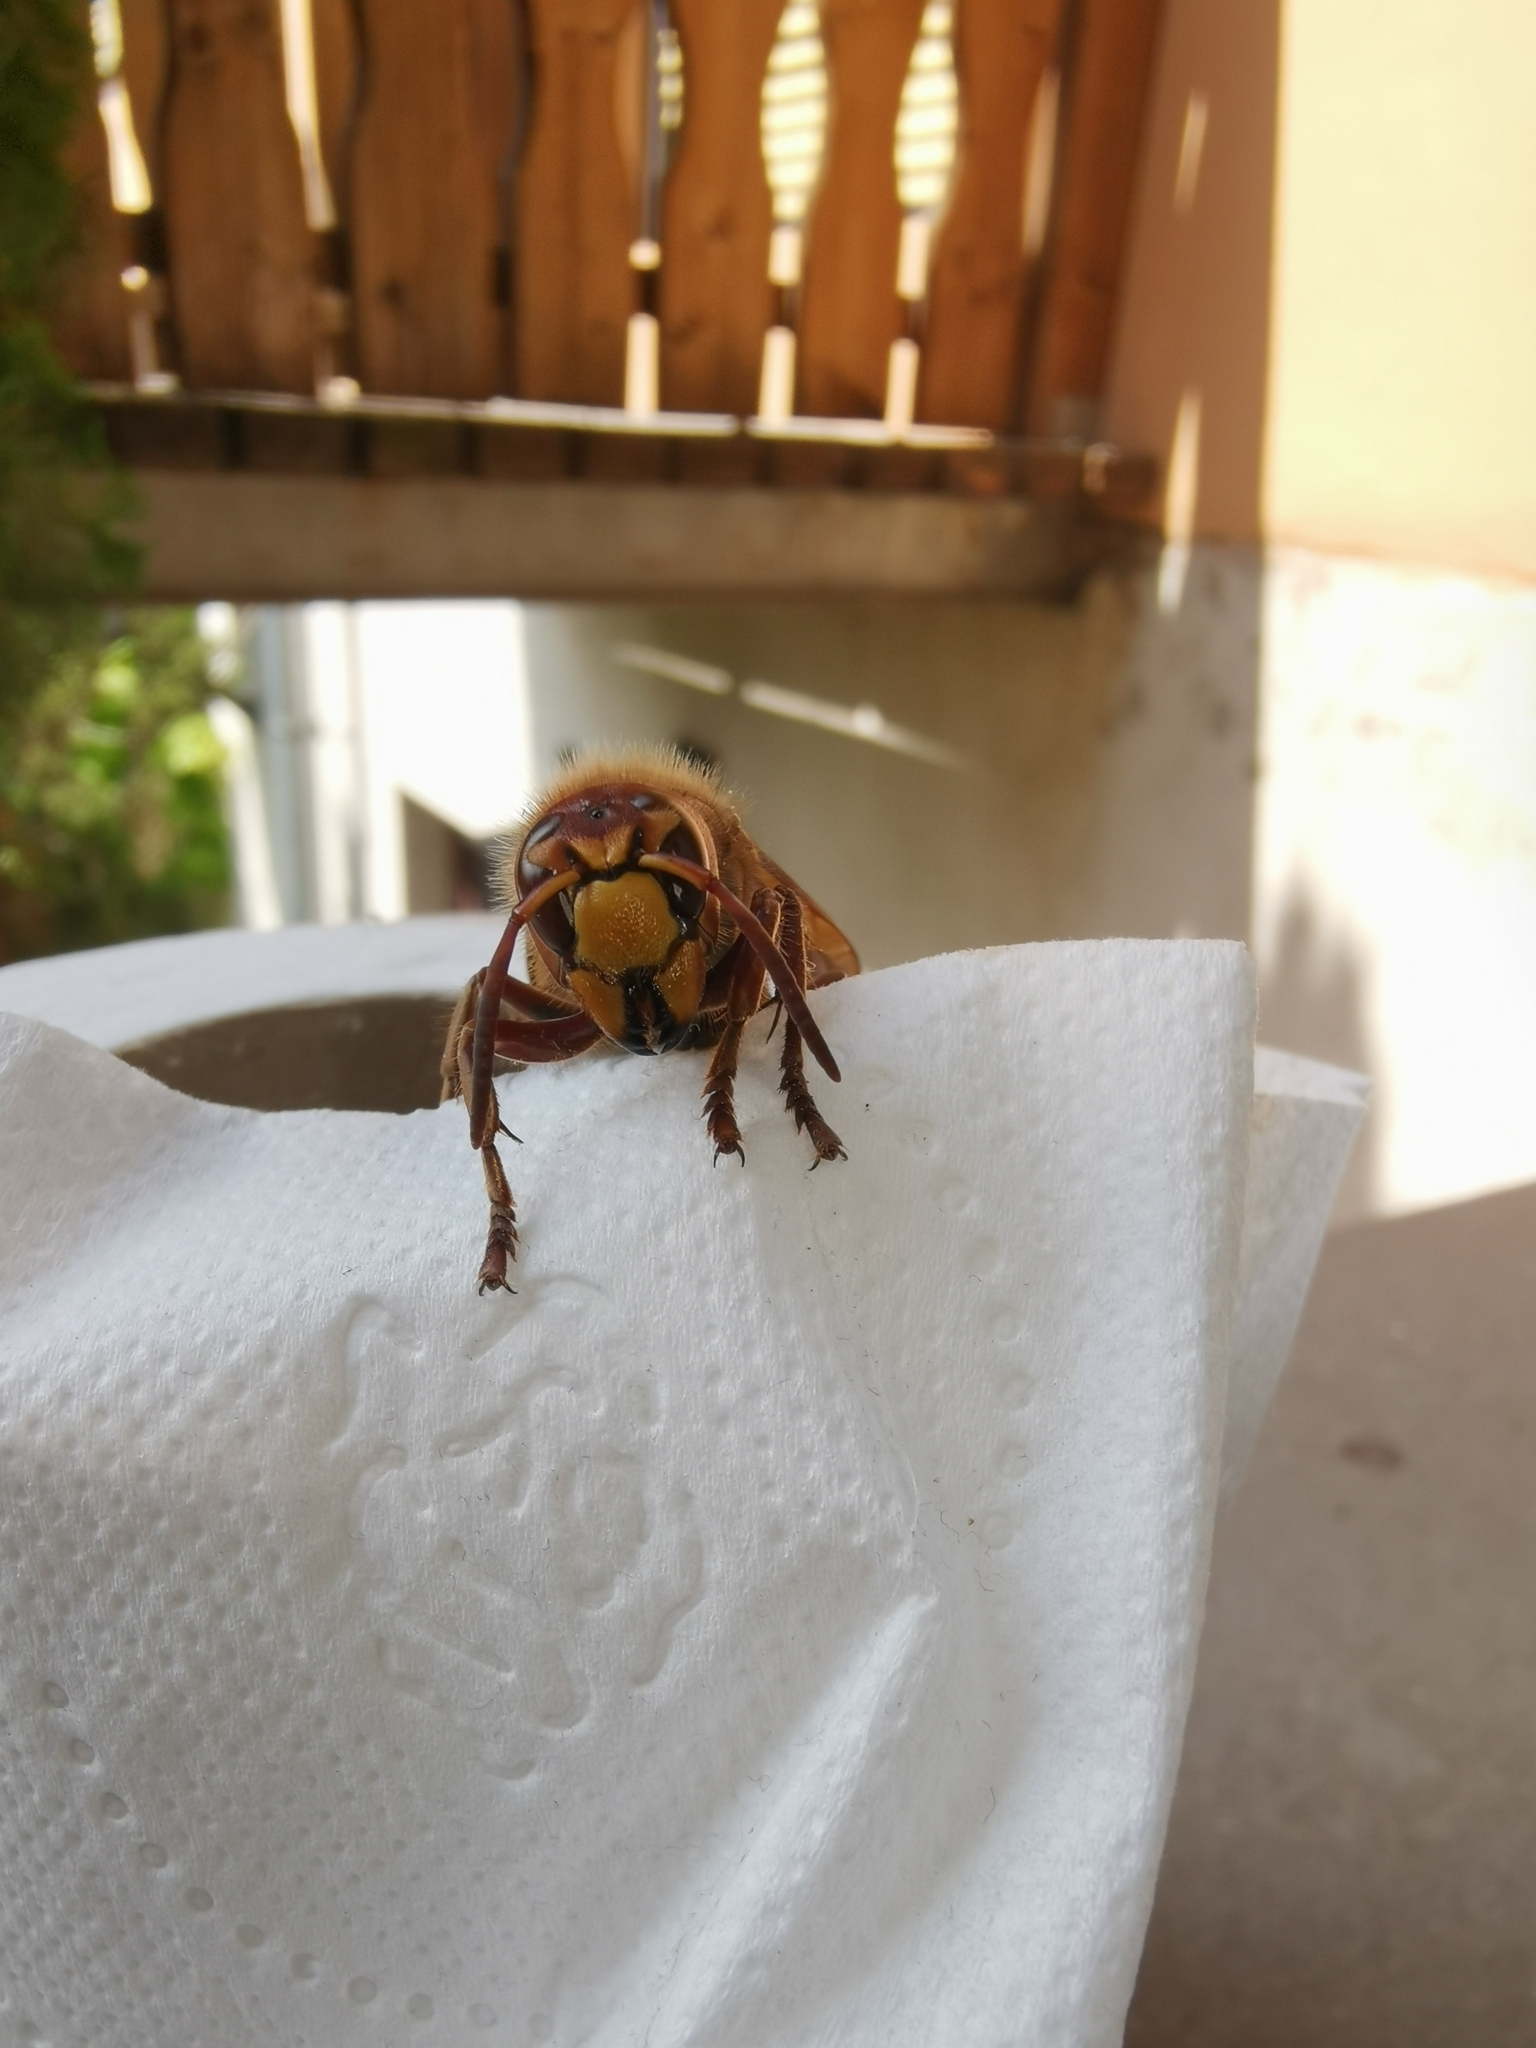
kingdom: Animalia
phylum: Arthropoda
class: Insecta
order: Hymenoptera
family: Vespidae
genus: Vespa
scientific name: Vespa crabro
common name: Hornet
